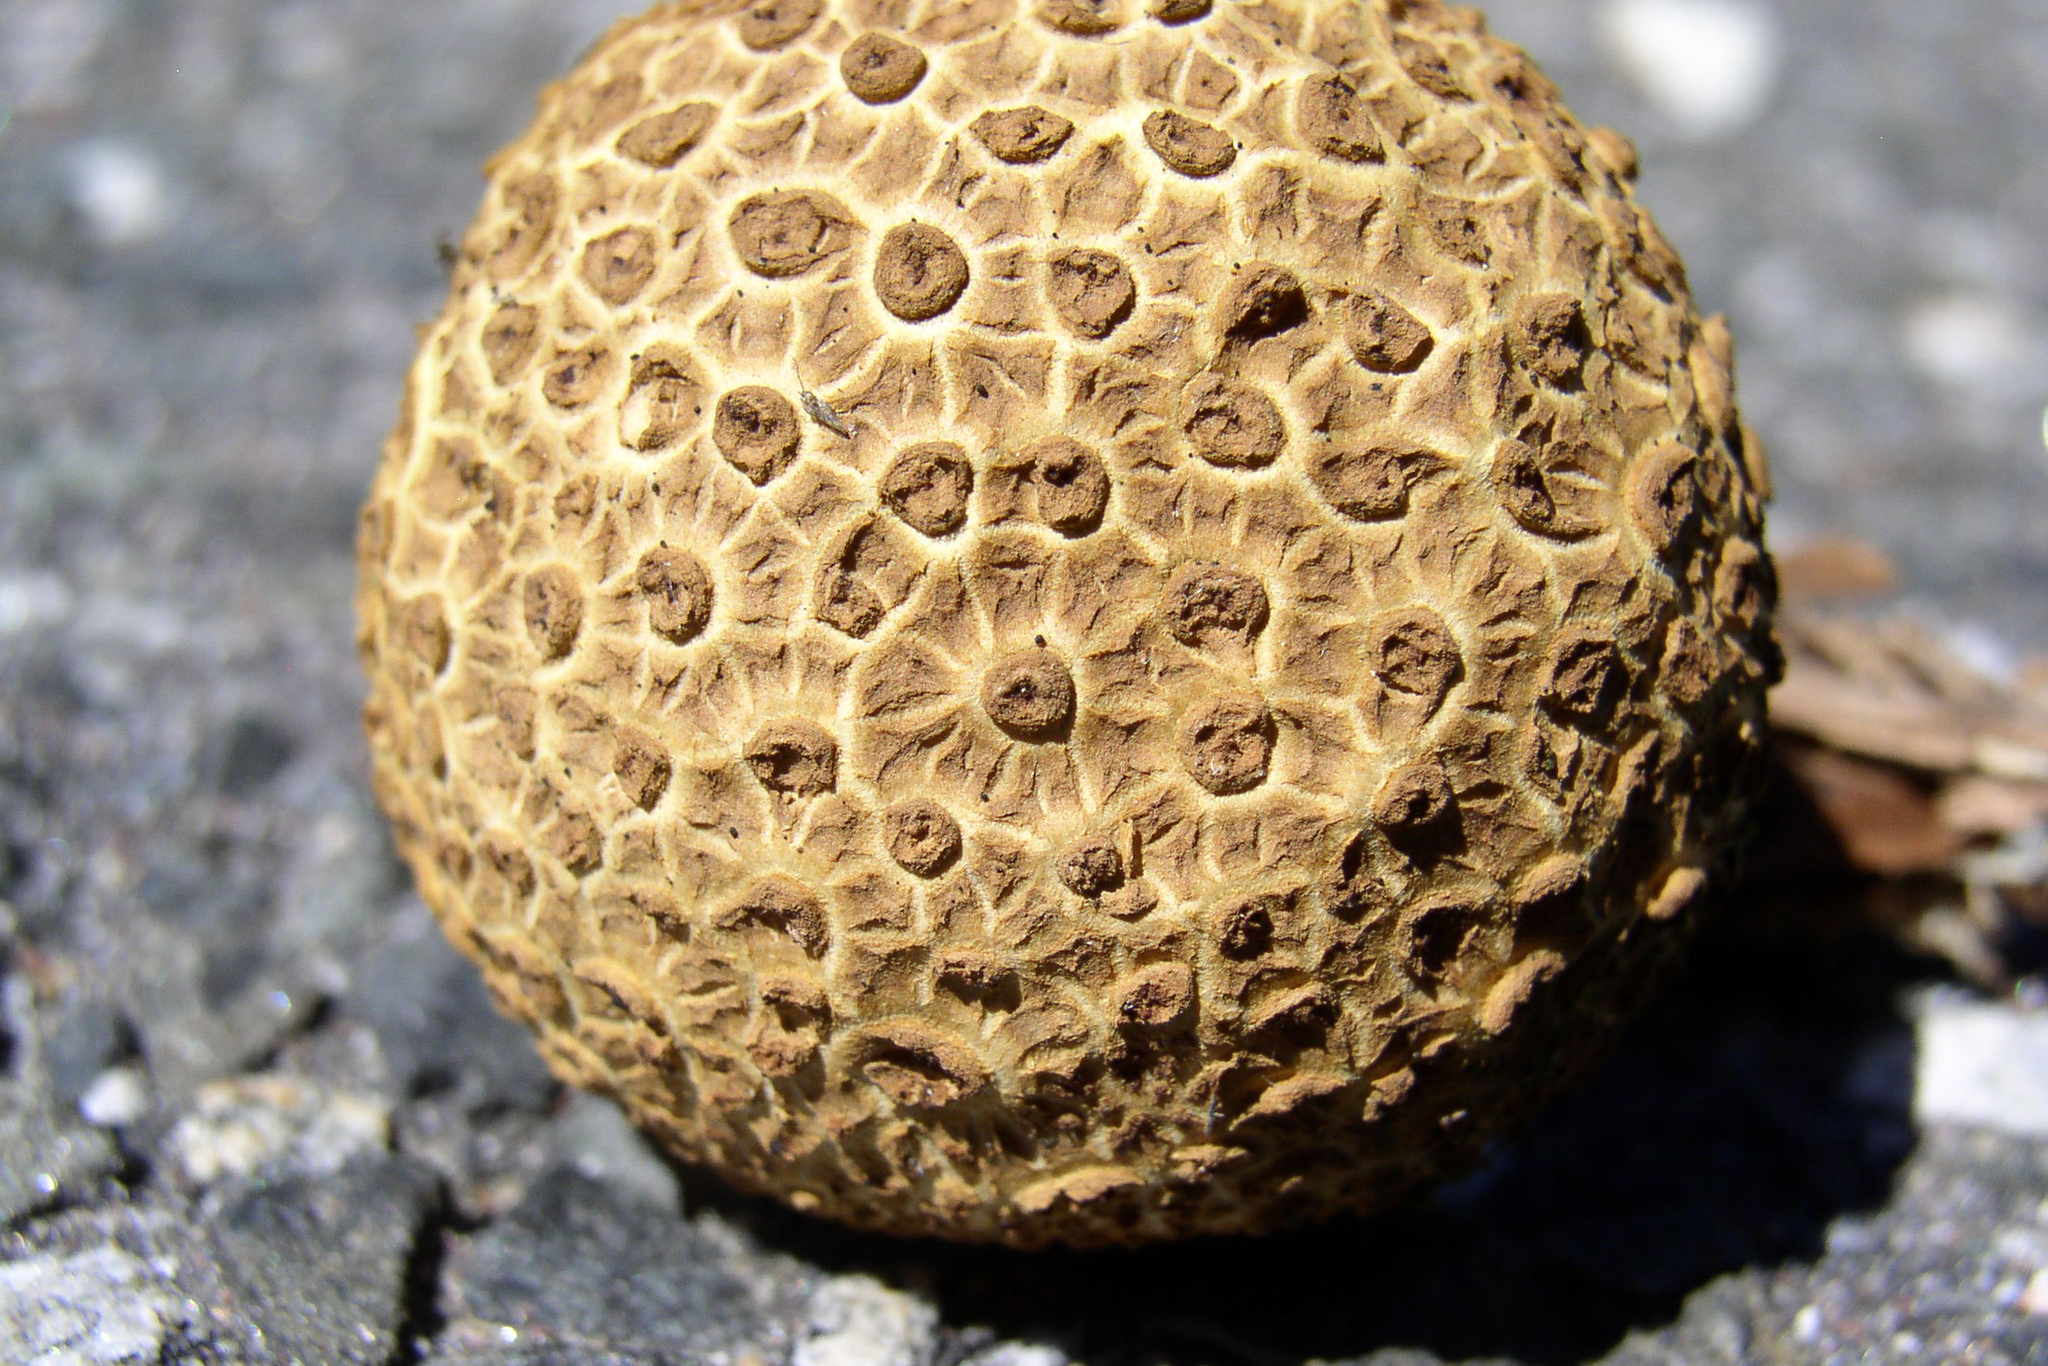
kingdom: Fungi
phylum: Basidiomycota
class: Agaricomycetes
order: Boletales
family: Sclerodermataceae
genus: Scleroderma
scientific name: Scleroderma citrinum
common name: Common earthball
